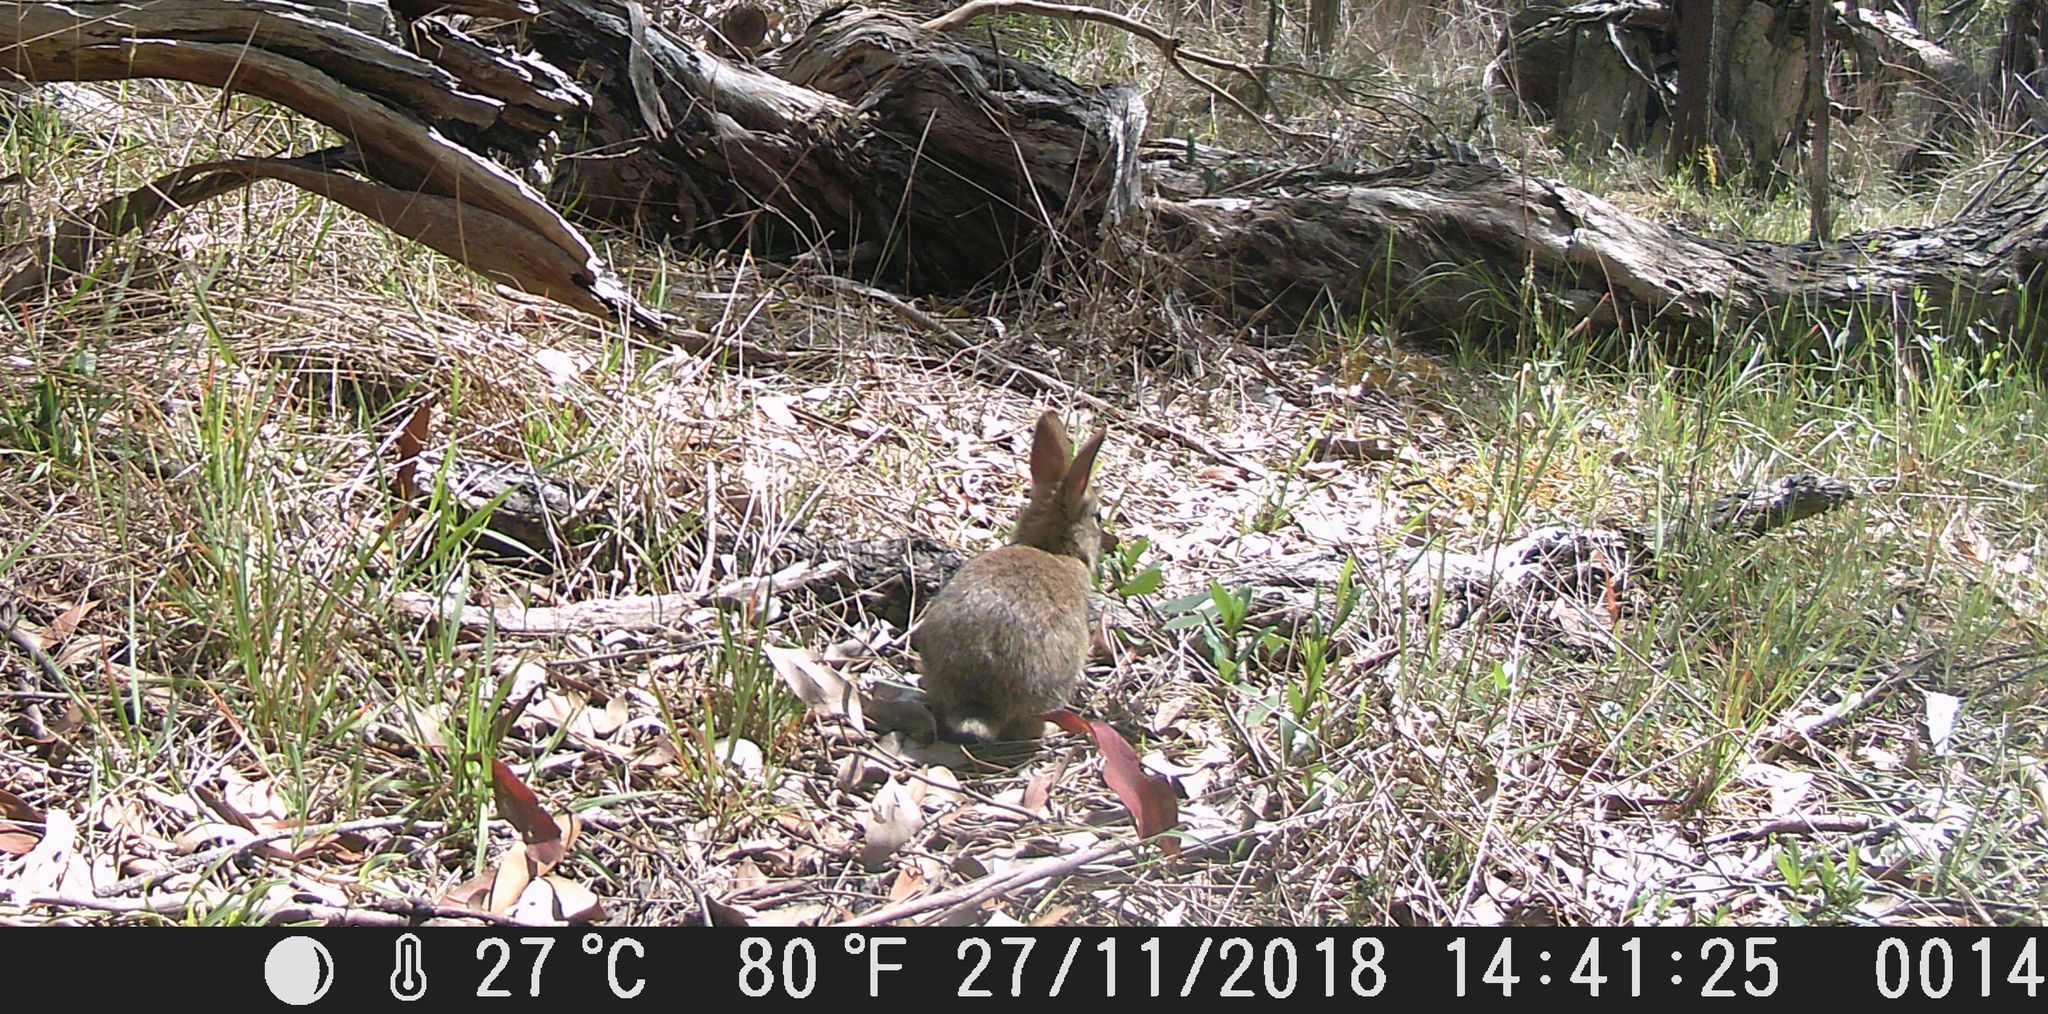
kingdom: Animalia
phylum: Chordata
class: Mammalia
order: Lagomorpha
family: Leporidae
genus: Oryctolagus
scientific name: Oryctolagus cuniculus
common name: European rabbit
